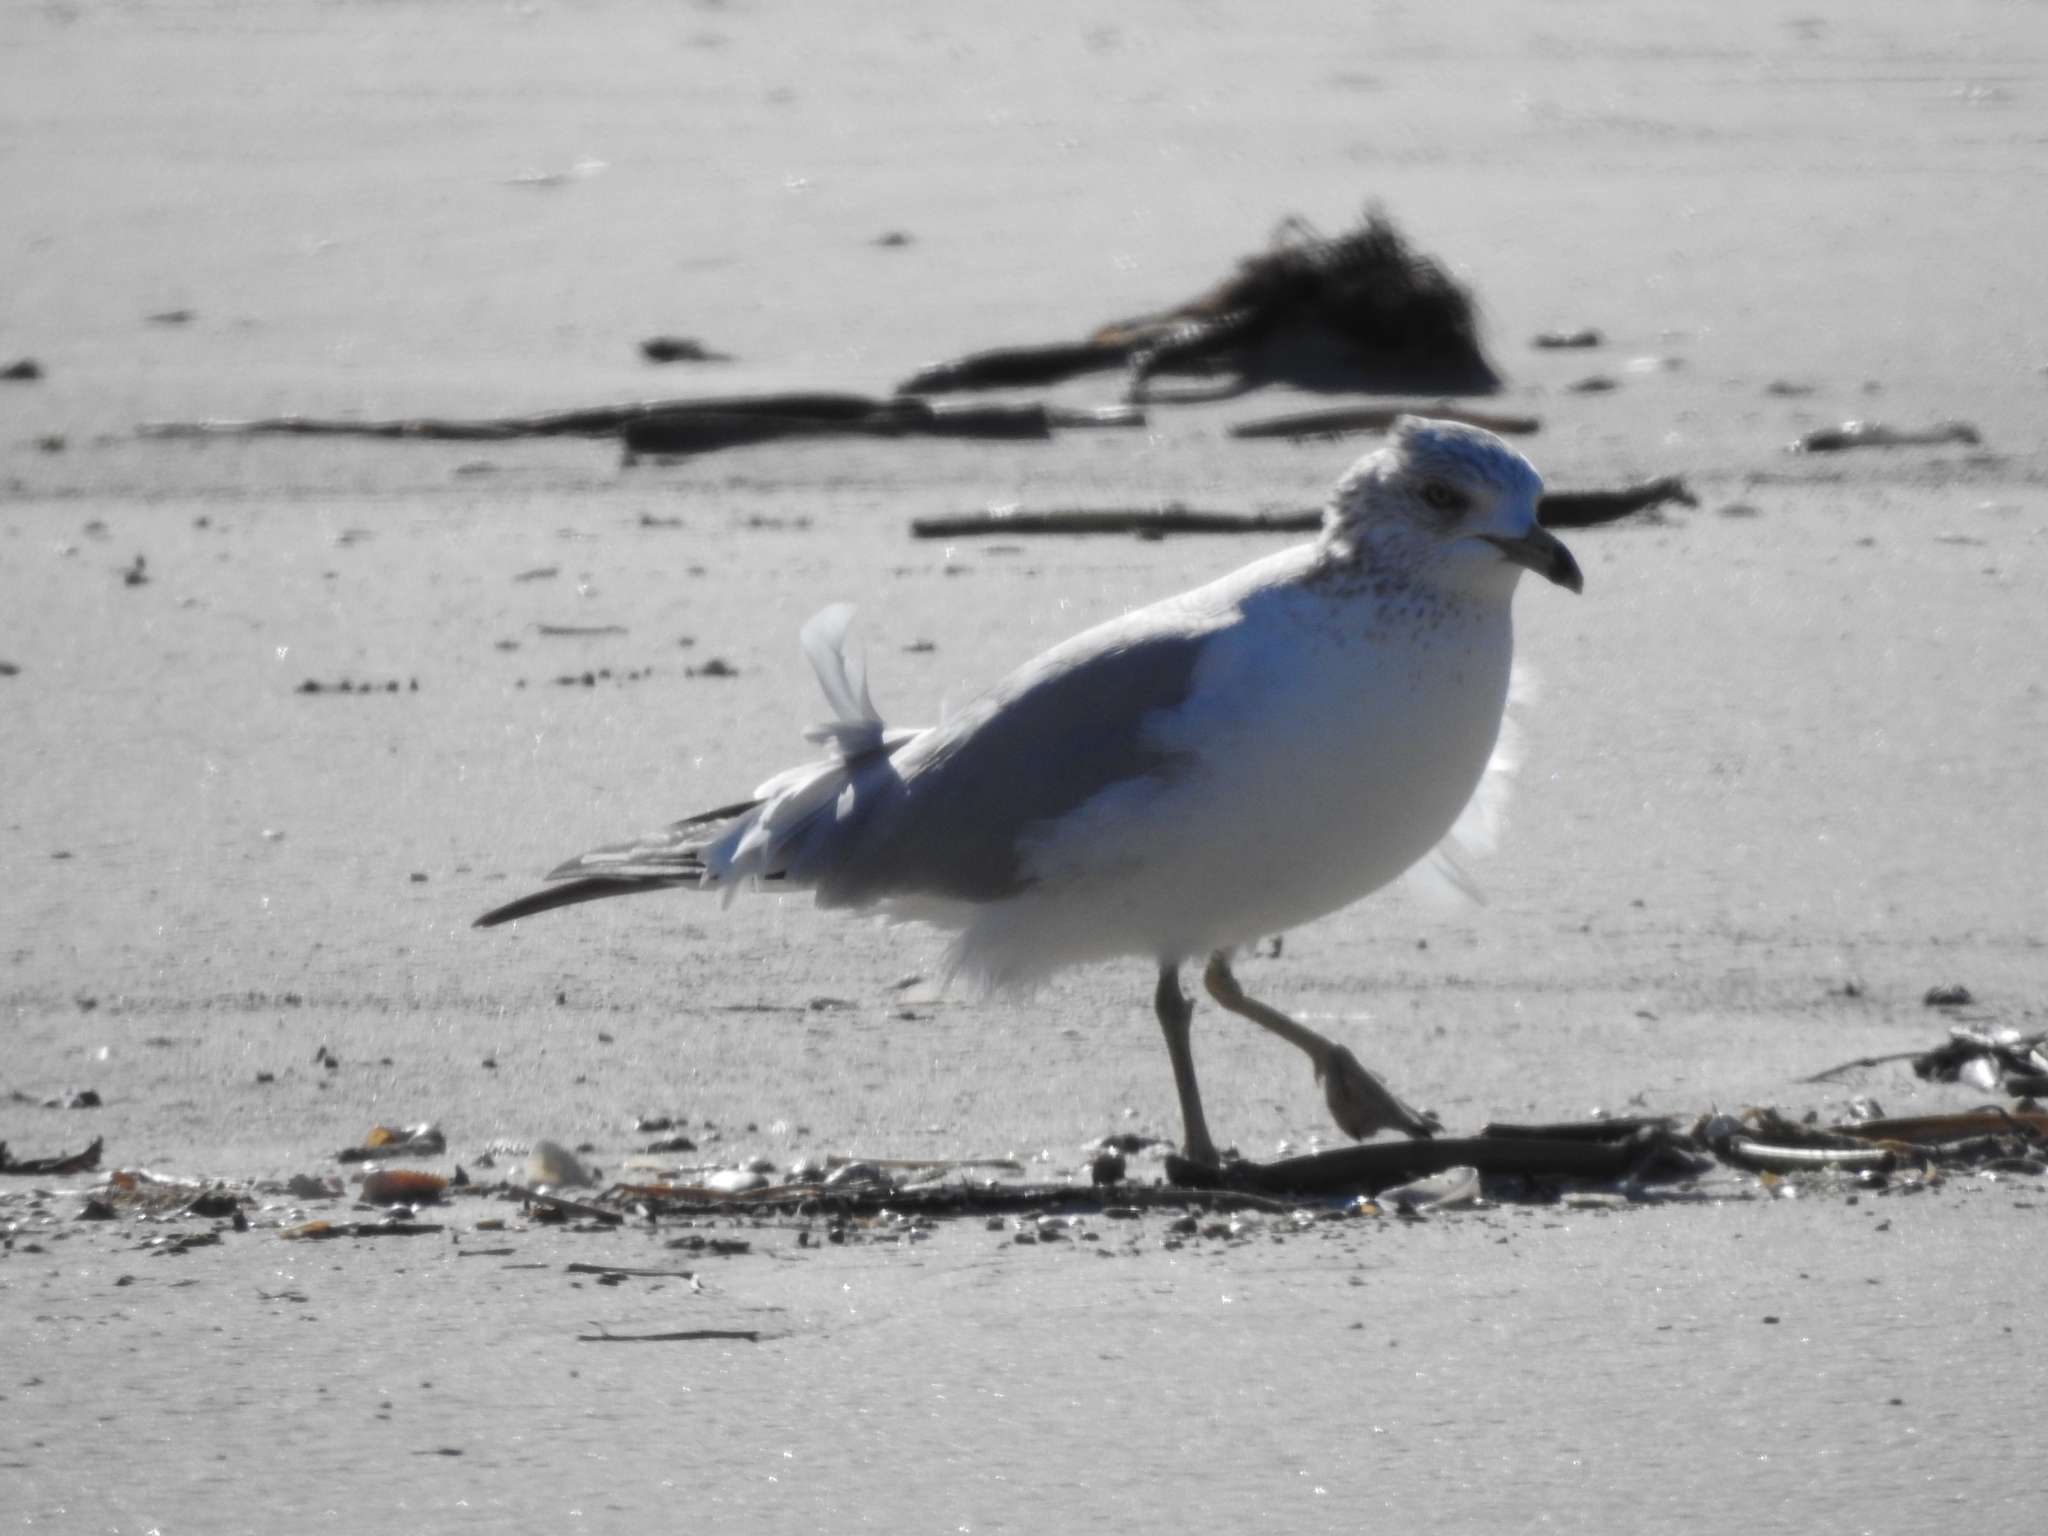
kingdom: Animalia
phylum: Chordata
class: Aves
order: Charadriiformes
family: Laridae
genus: Larus
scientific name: Larus delawarensis
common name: Ring-billed gull
